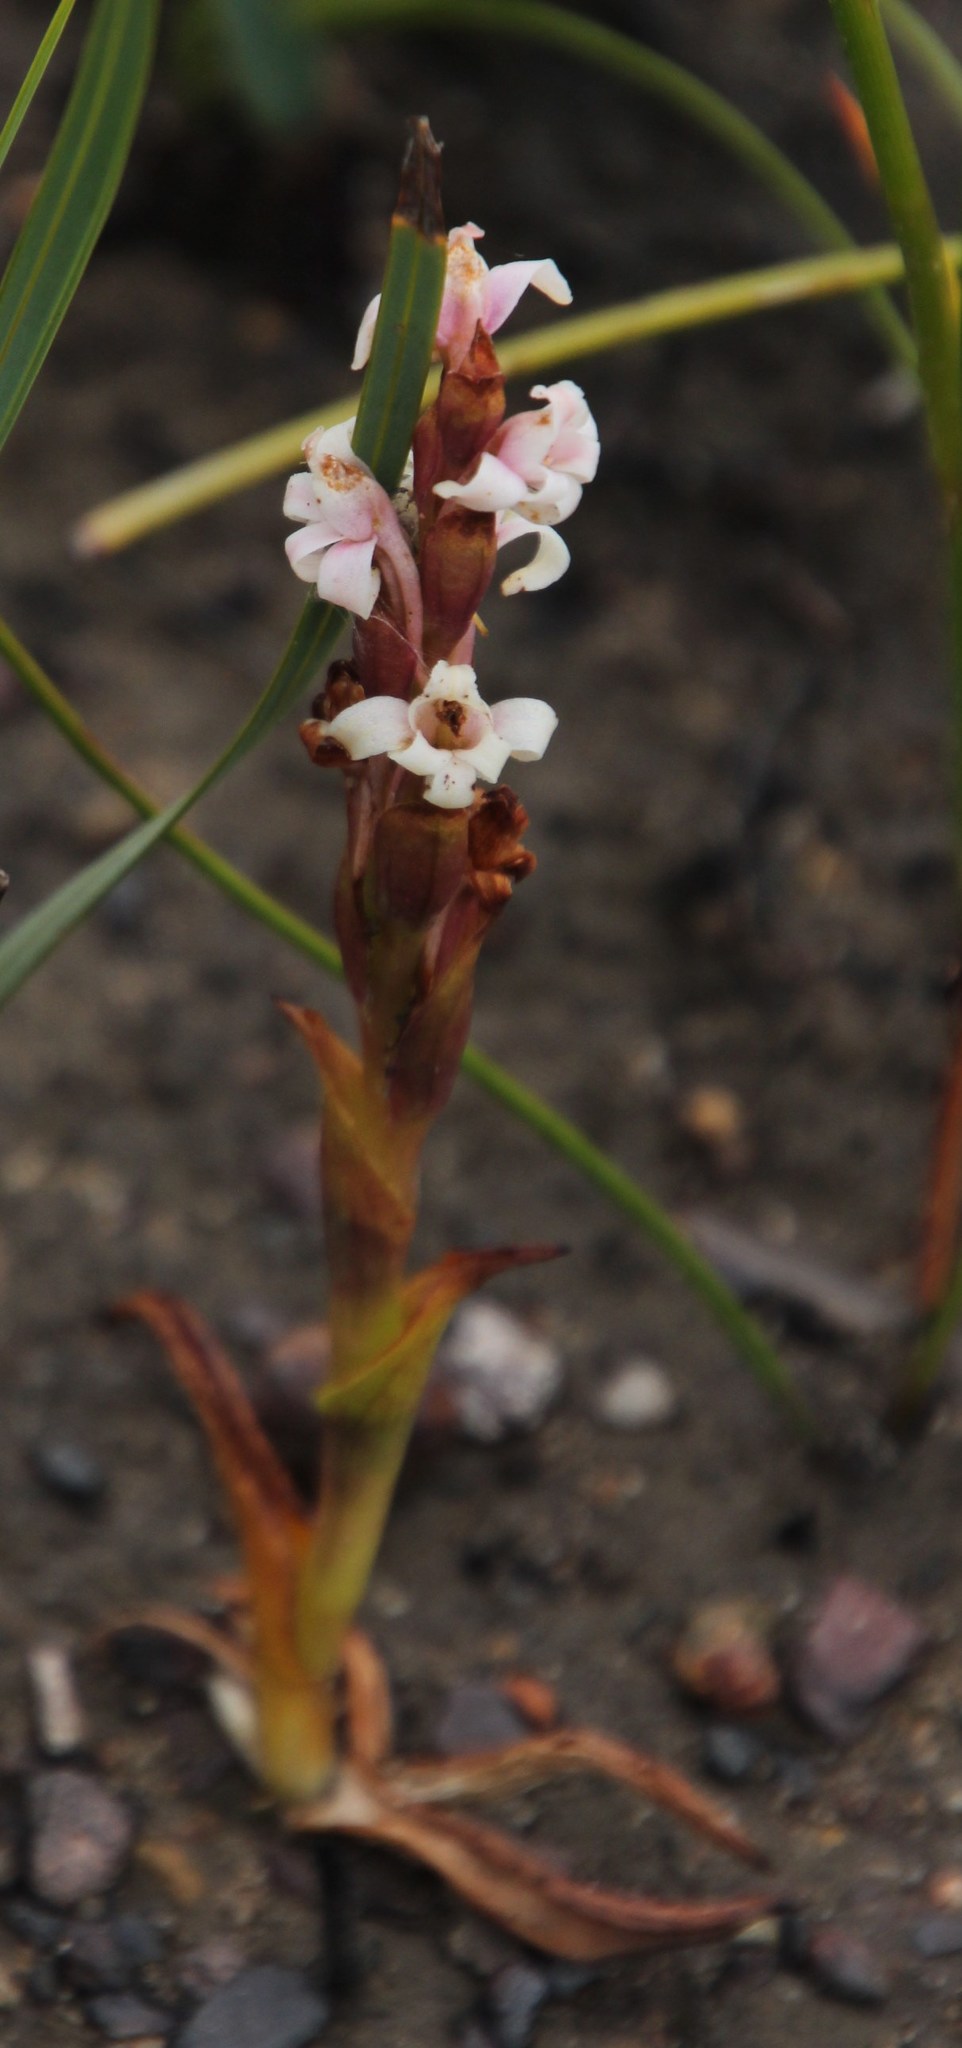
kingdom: Plantae
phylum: Tracheophyta
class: Liliopsida
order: Asparagales
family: Orchidaceae
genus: Satyrium
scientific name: Satyrium stenopetalum
